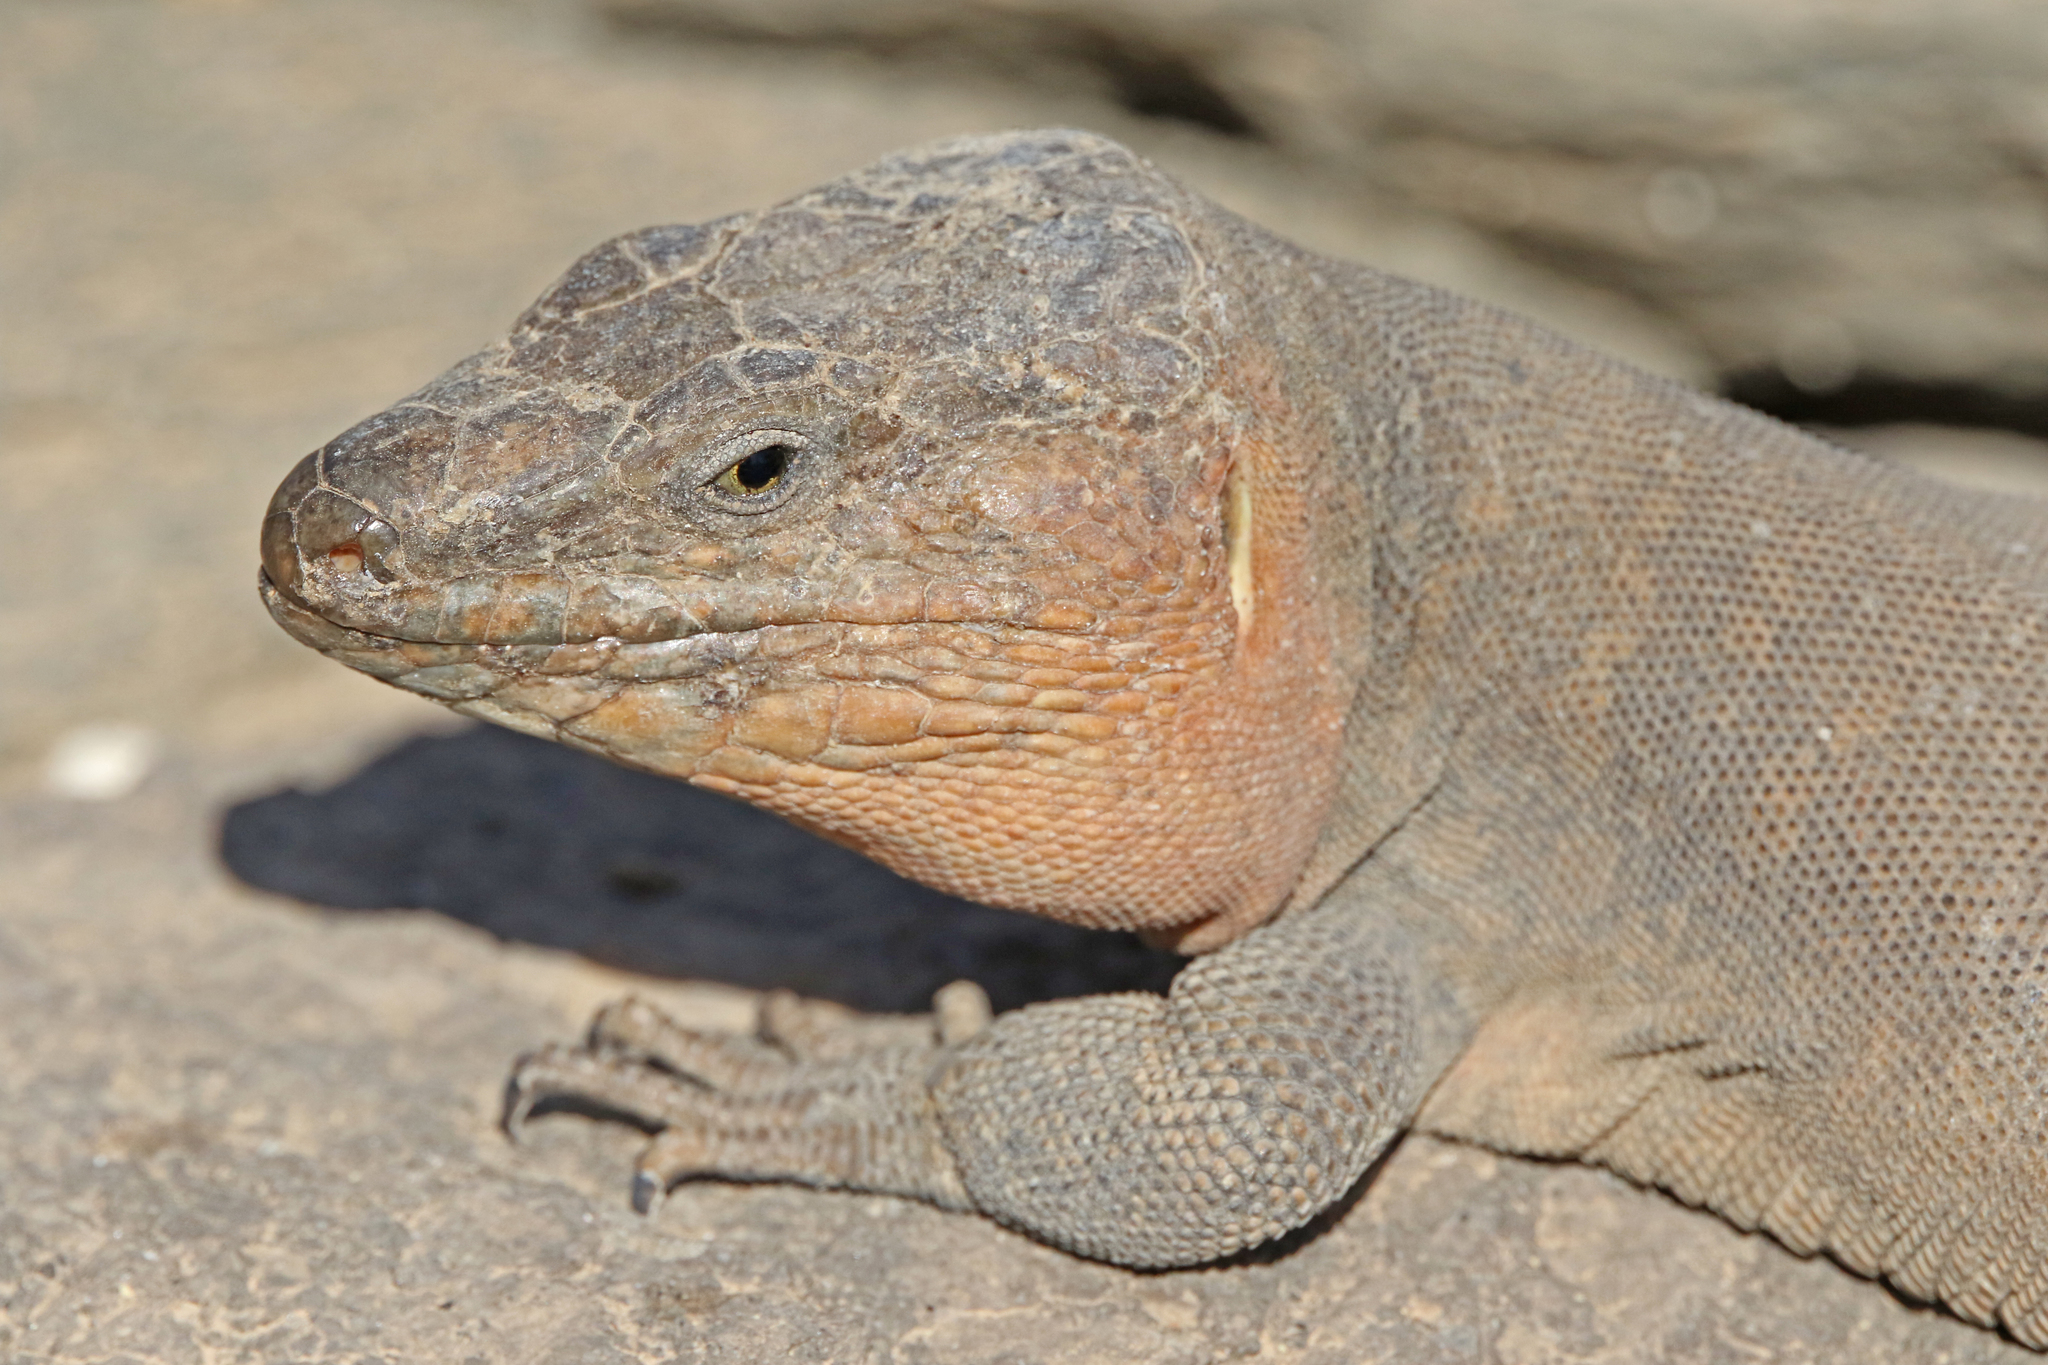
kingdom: Animalia
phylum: Chordata
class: Squamata
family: Lacertidae
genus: Gallotia
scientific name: Gallotia stehlini
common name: Gran canaria giant lizard
